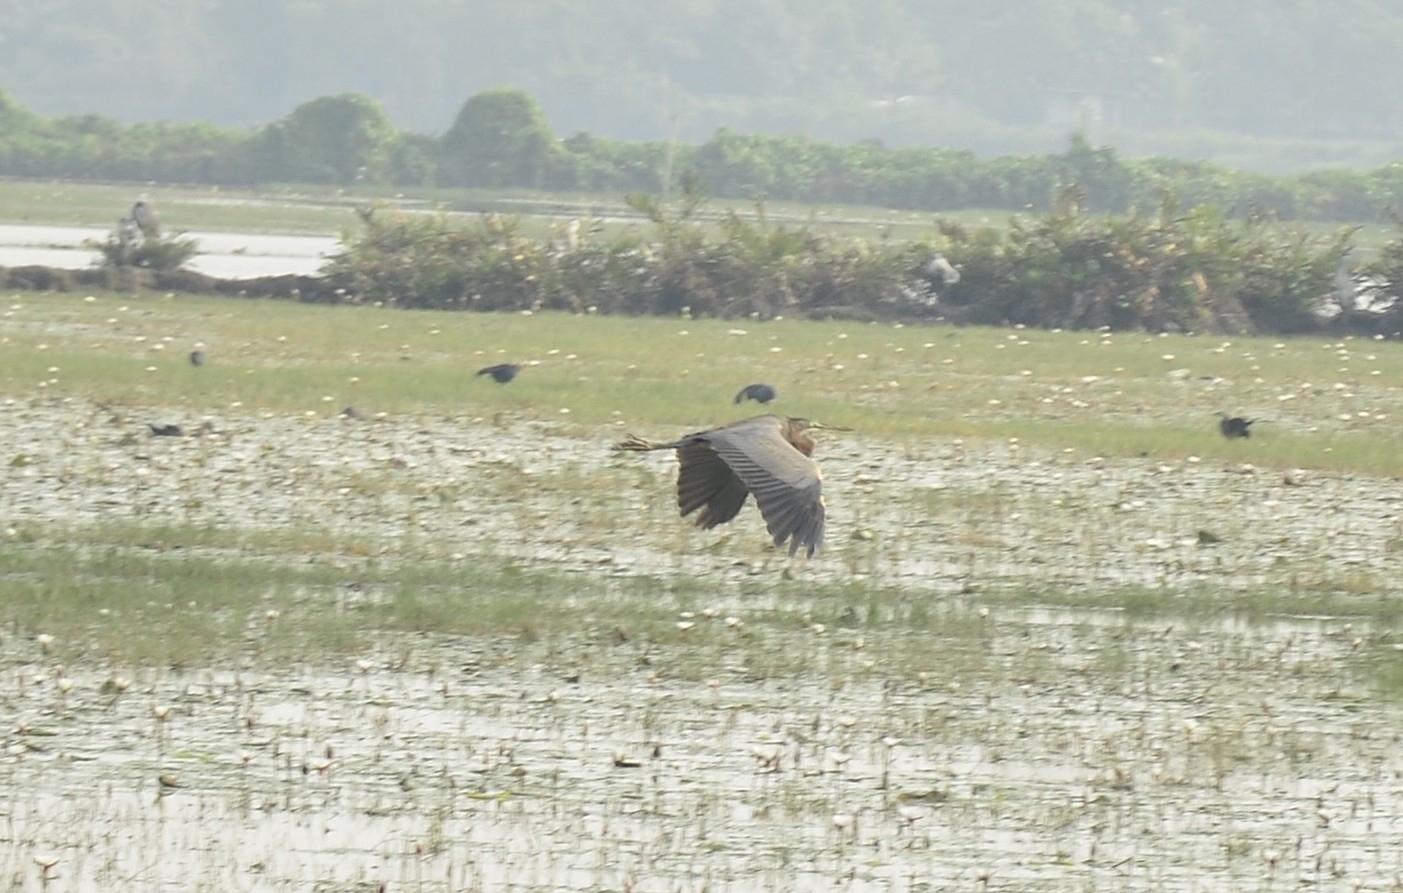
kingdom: Animalia
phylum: Chordata
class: Aves
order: Pelecaniformes
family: Ardeidae
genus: Ardea
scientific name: Ardea purpurea
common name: Purple heron
